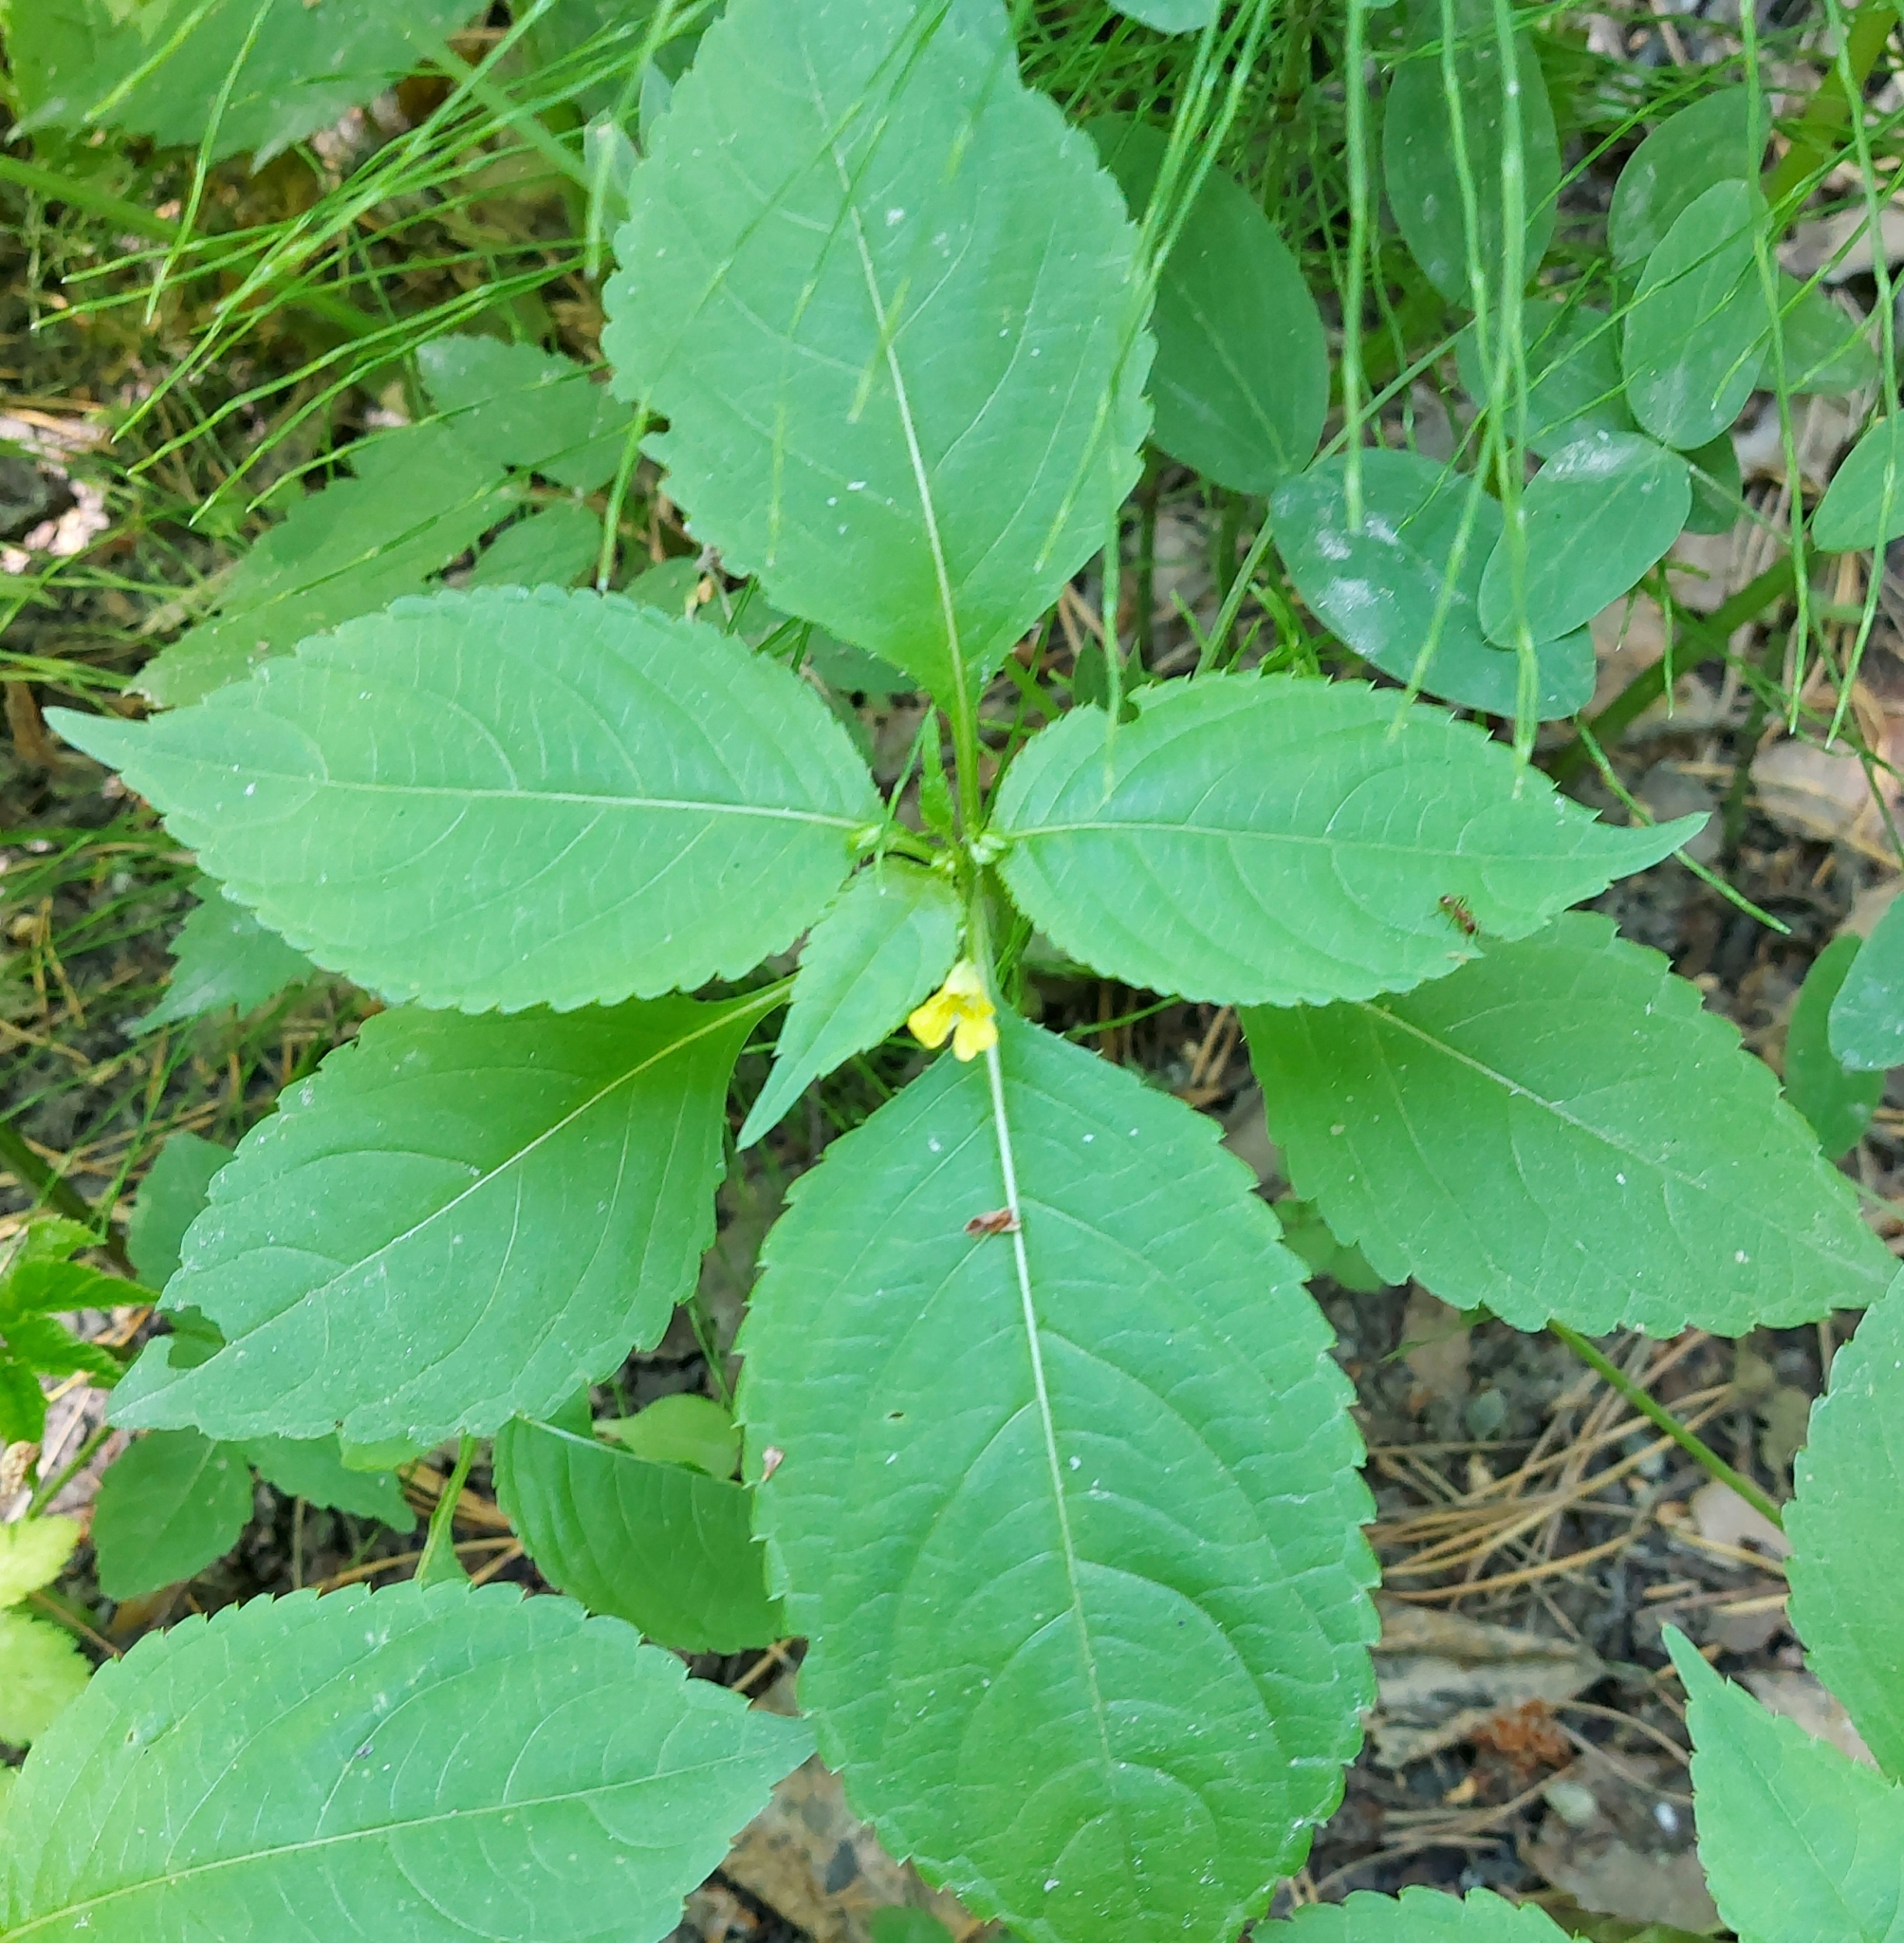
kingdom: Plantae
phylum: Tracheophyta
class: Magnoliopsida
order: Ericales
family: Balsaminaceae
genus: Impatiens
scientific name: Impatiens parviflora
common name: Small balsam
